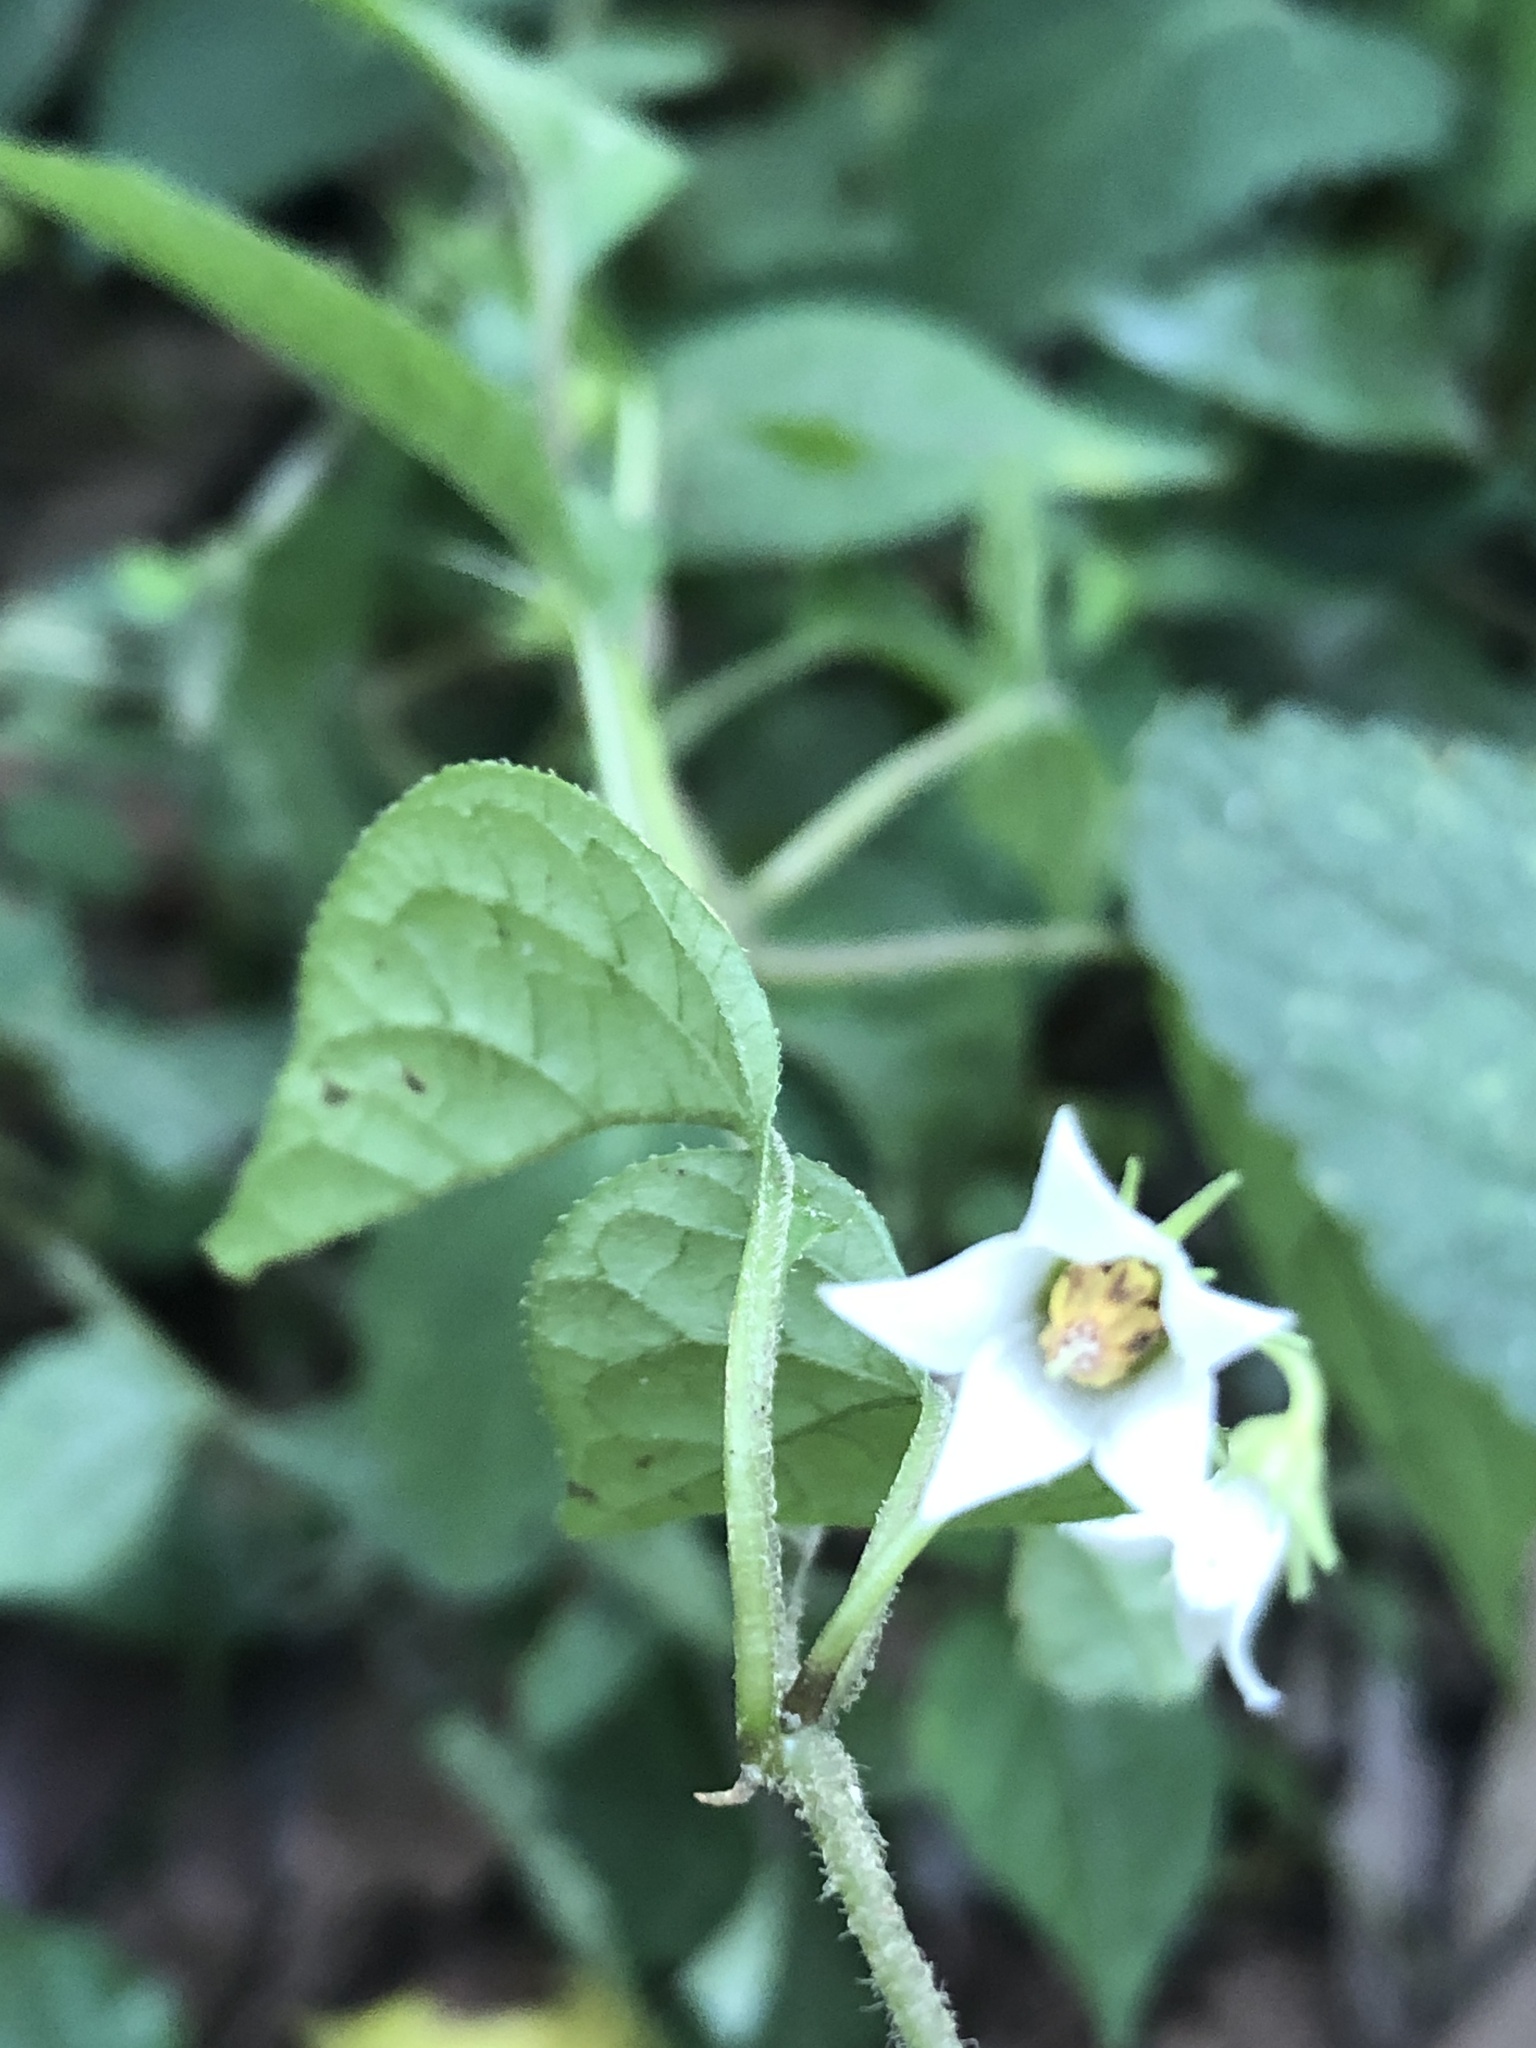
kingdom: Plantae
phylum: Tracheophyta
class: Magnoliopsida
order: Solanales
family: Solanaceae
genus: Lycianthes
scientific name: Lycianthes lysimachioides
